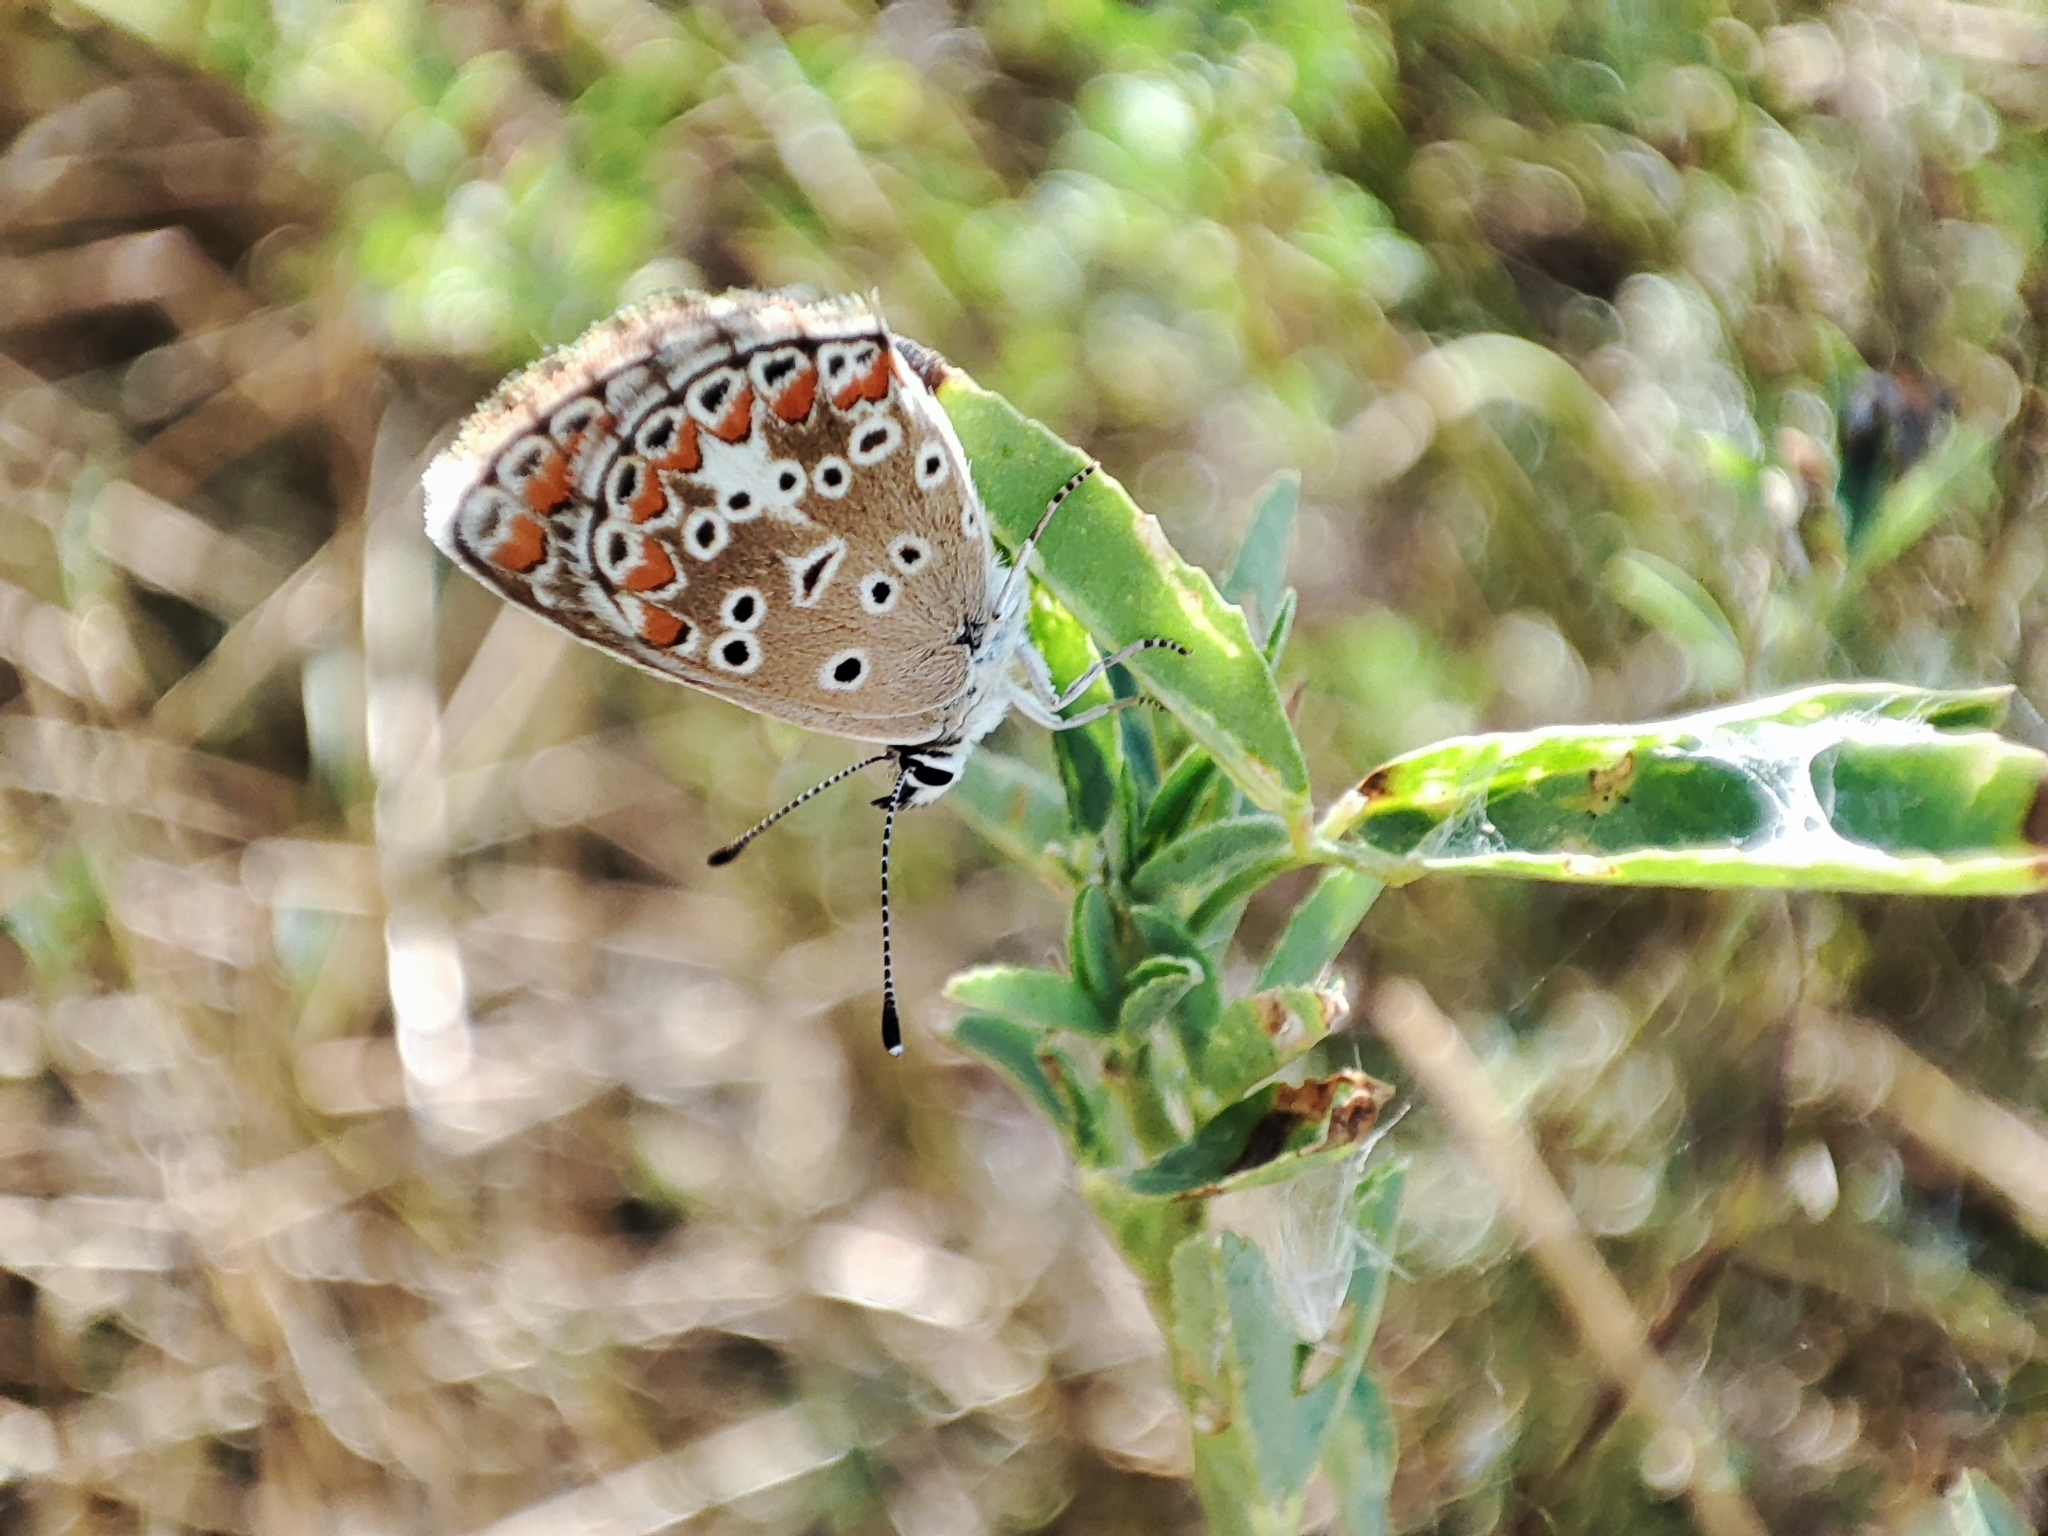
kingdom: Animalia
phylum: Arthropoda
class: Insecta
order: Lepidoptera
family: Lycaenidae
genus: Aricia
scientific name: Aricia agestis
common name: Brown argus
